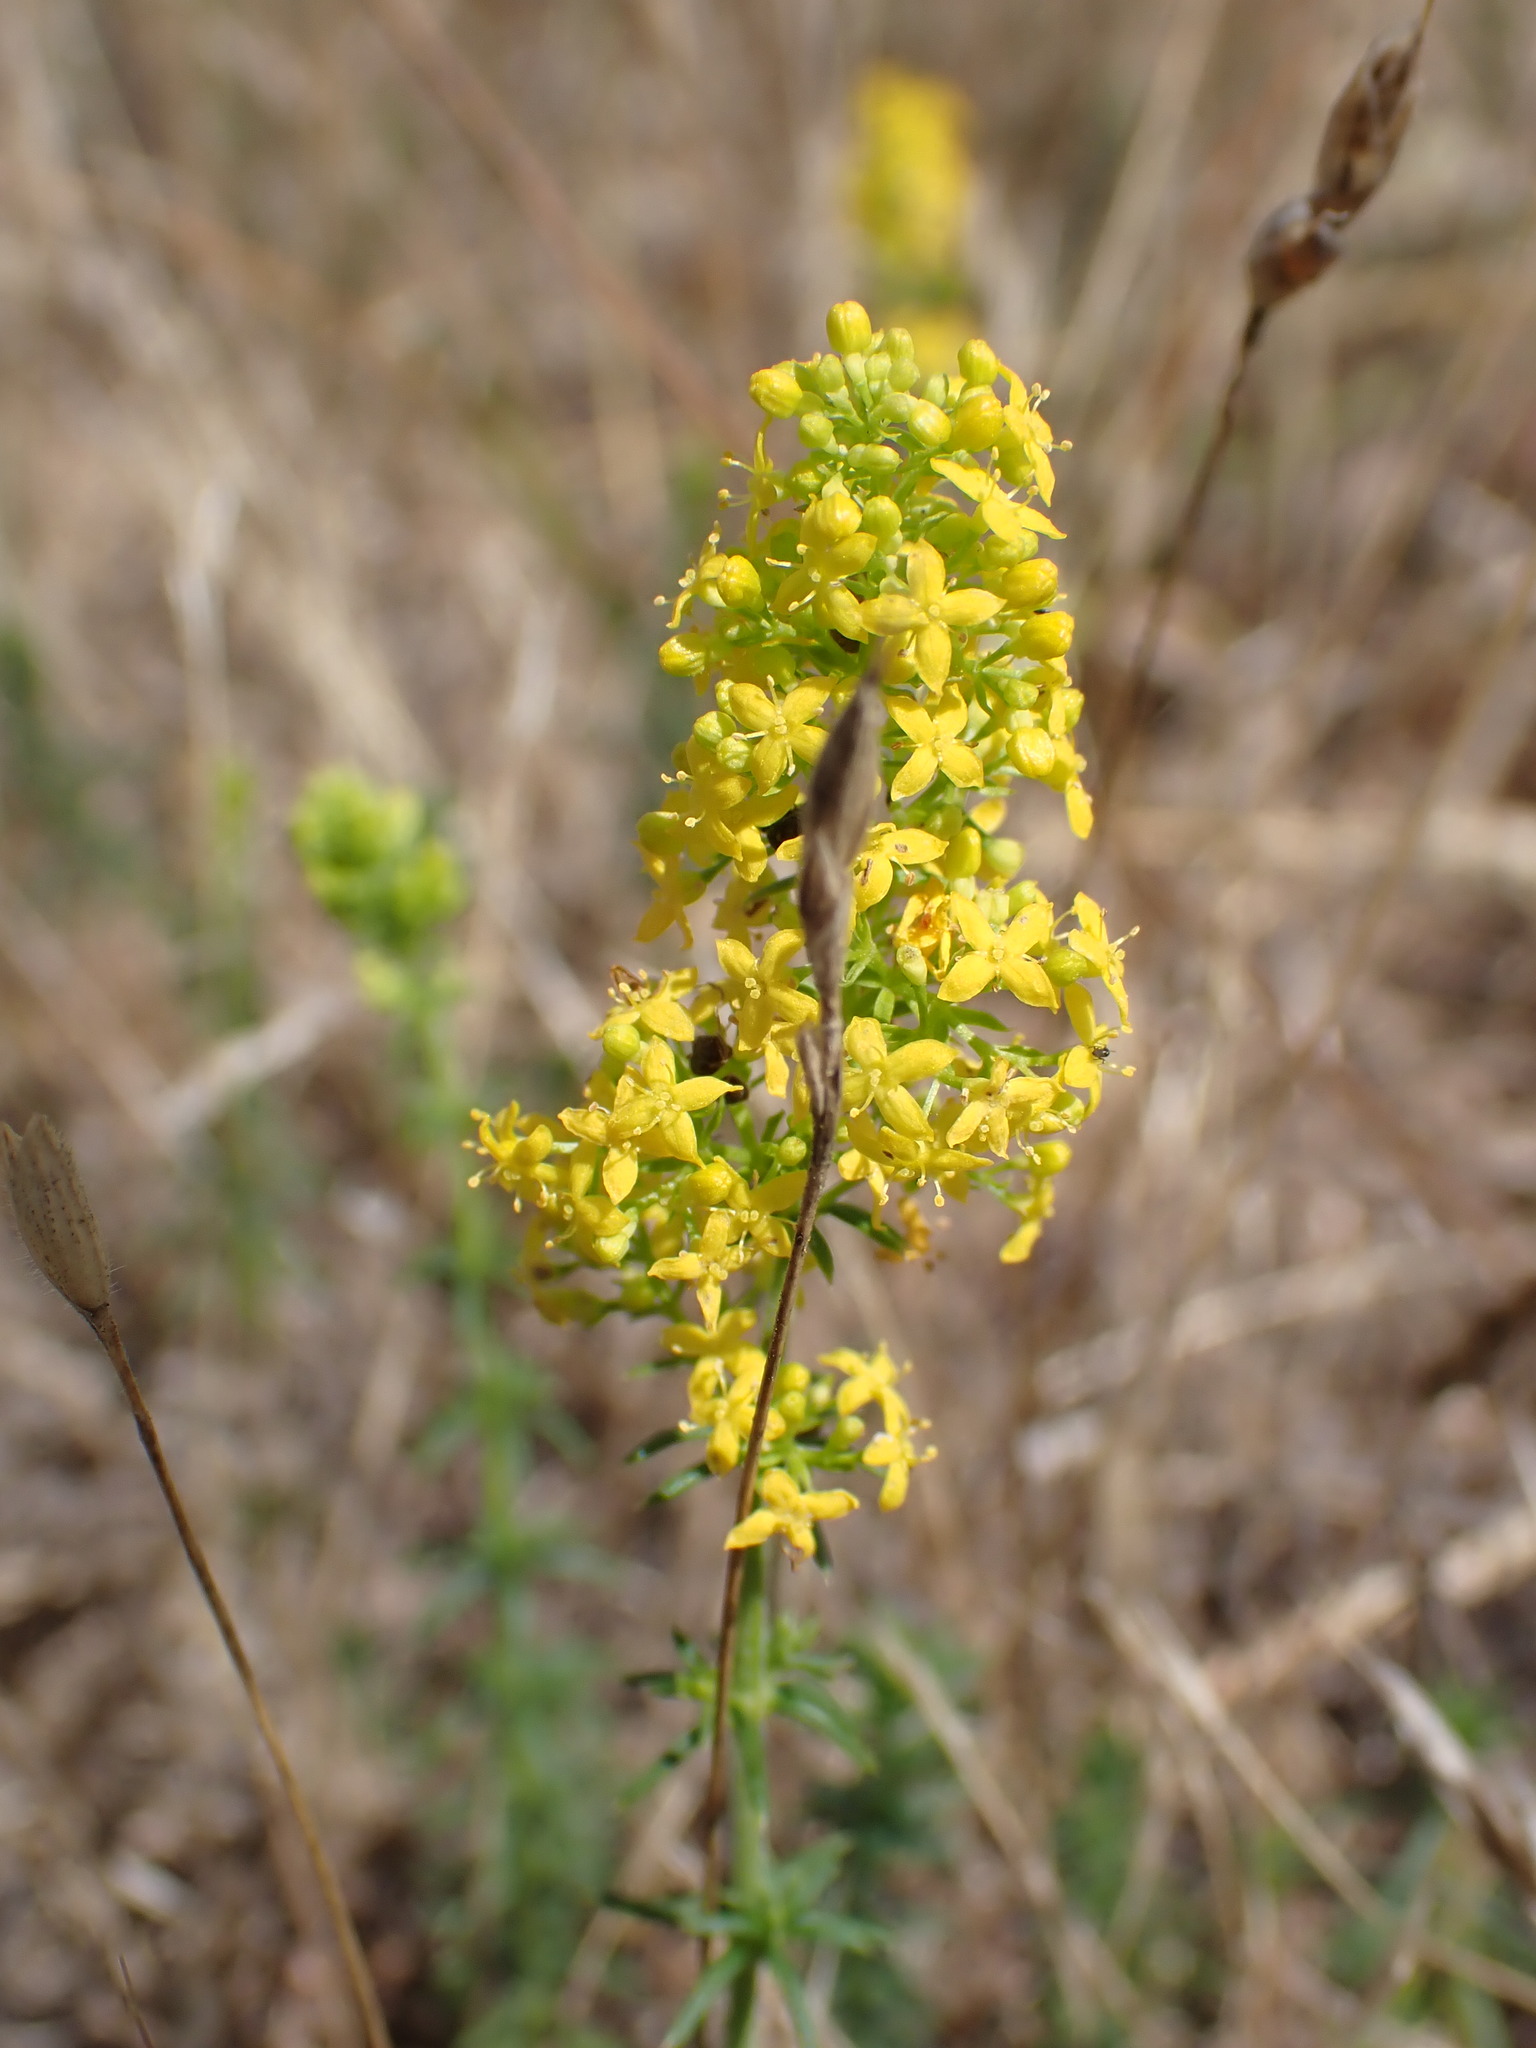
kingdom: Plantae
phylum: Tracheophyta
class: Magnoliopsida
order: Gentianales
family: Rubiaceae
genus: Galium
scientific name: Galium verum
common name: Lady's bedstraw
